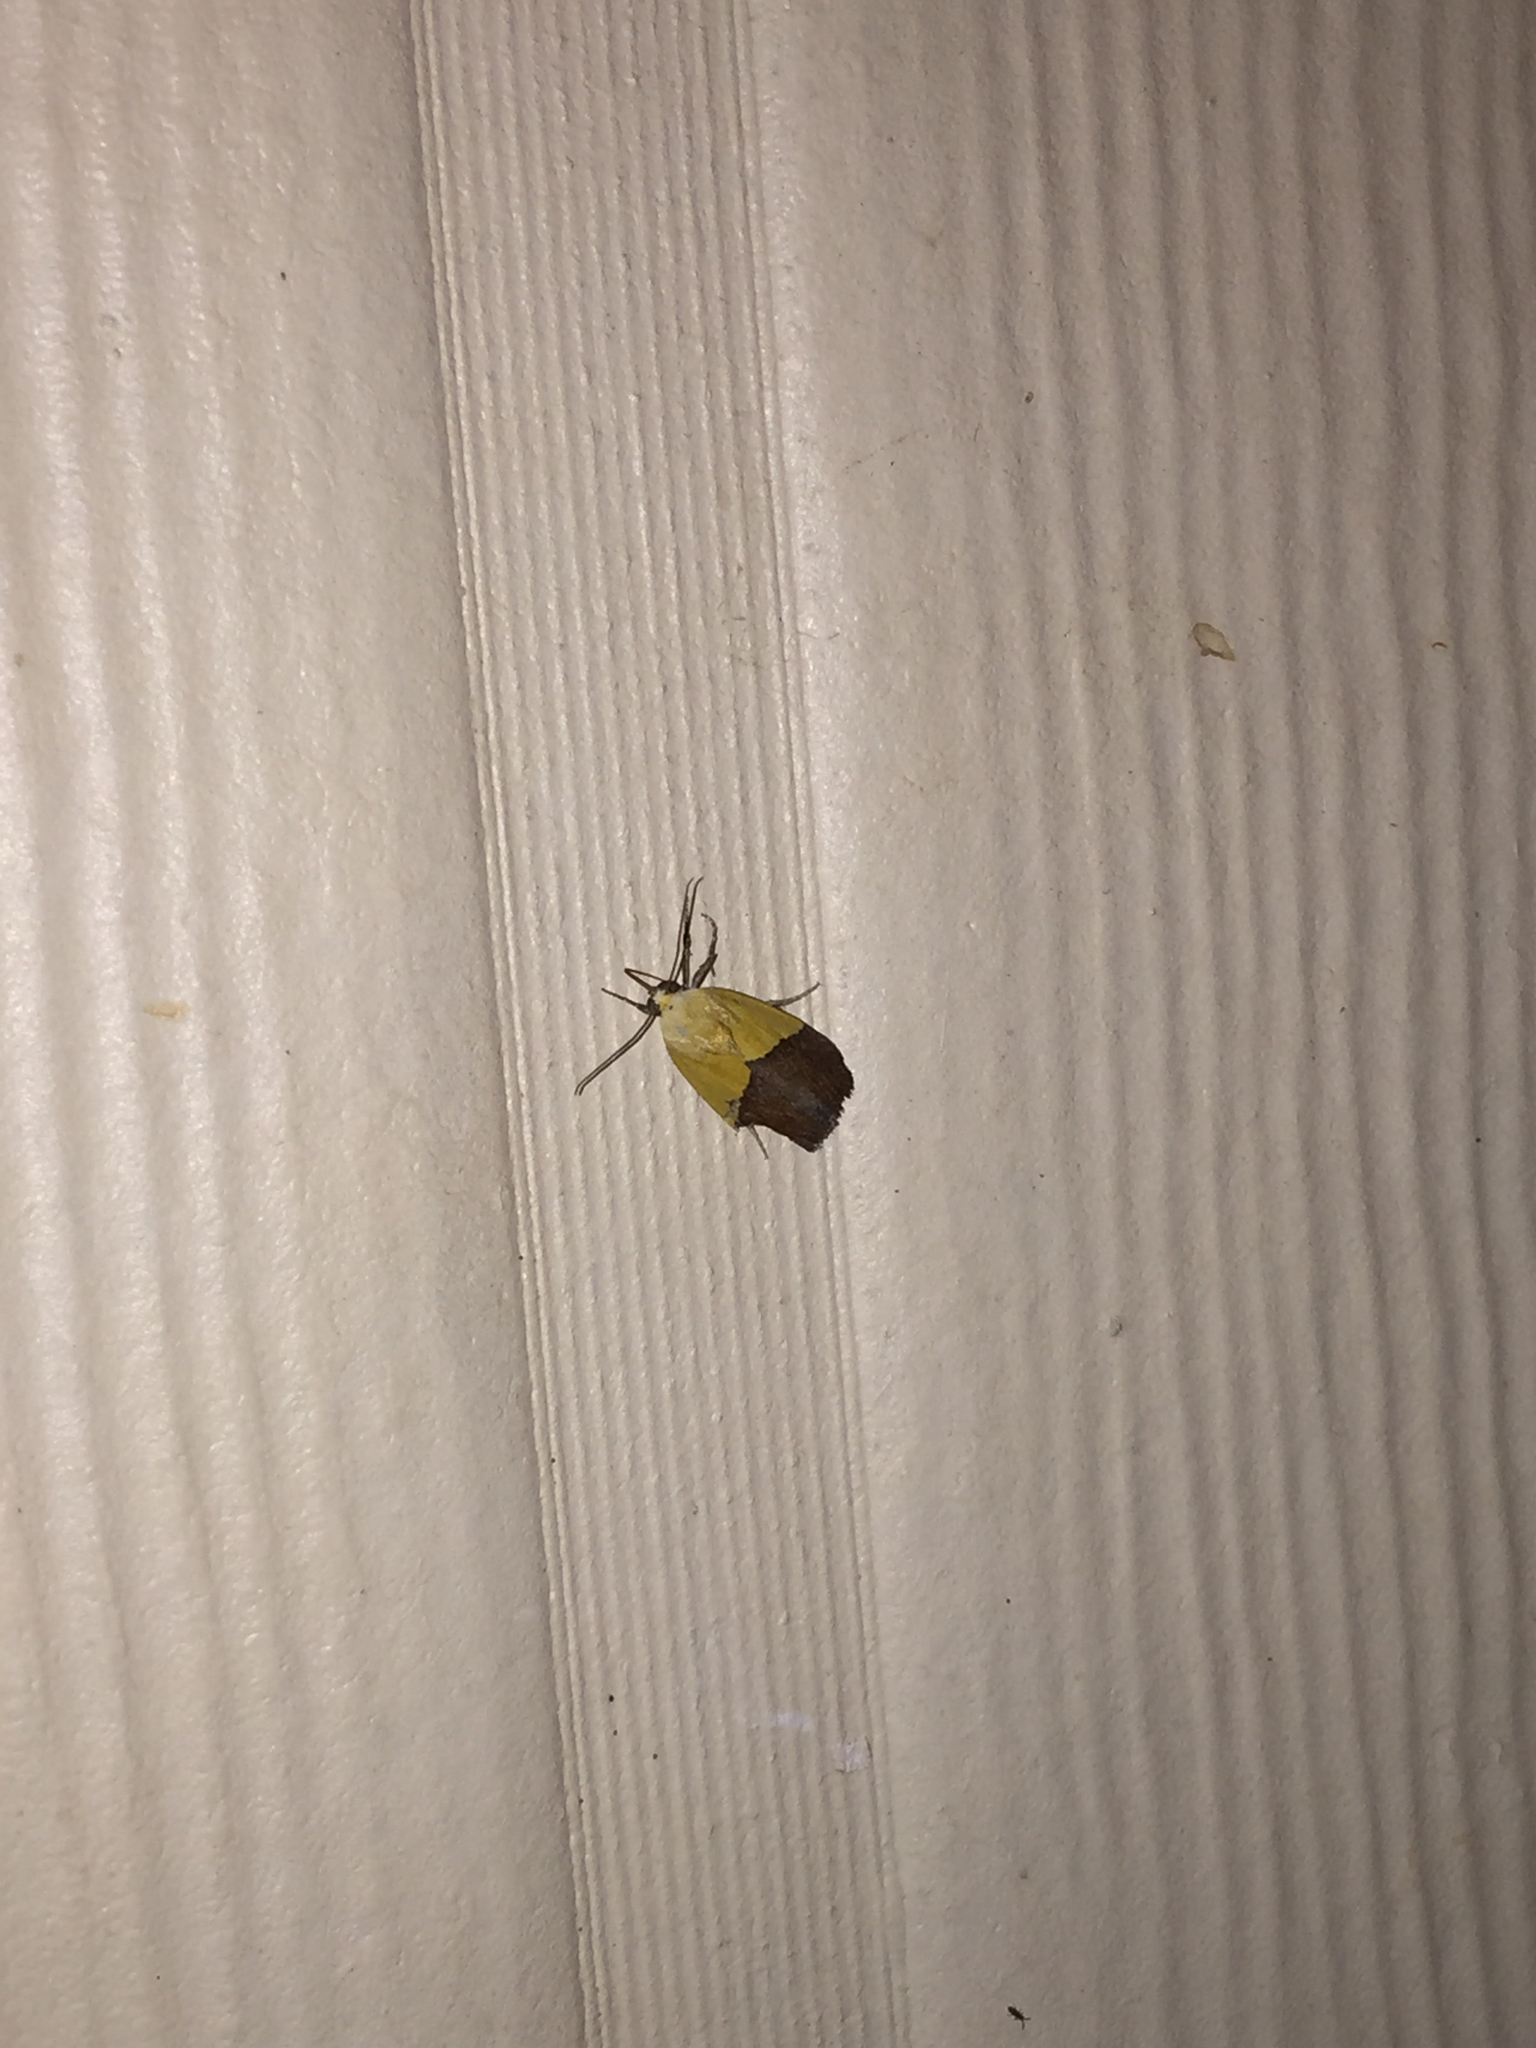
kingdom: Animalia
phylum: Arthropoda
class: Insecta
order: Lepidoptera
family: Noctuidae
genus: Acontia
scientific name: Acontia semiflava
